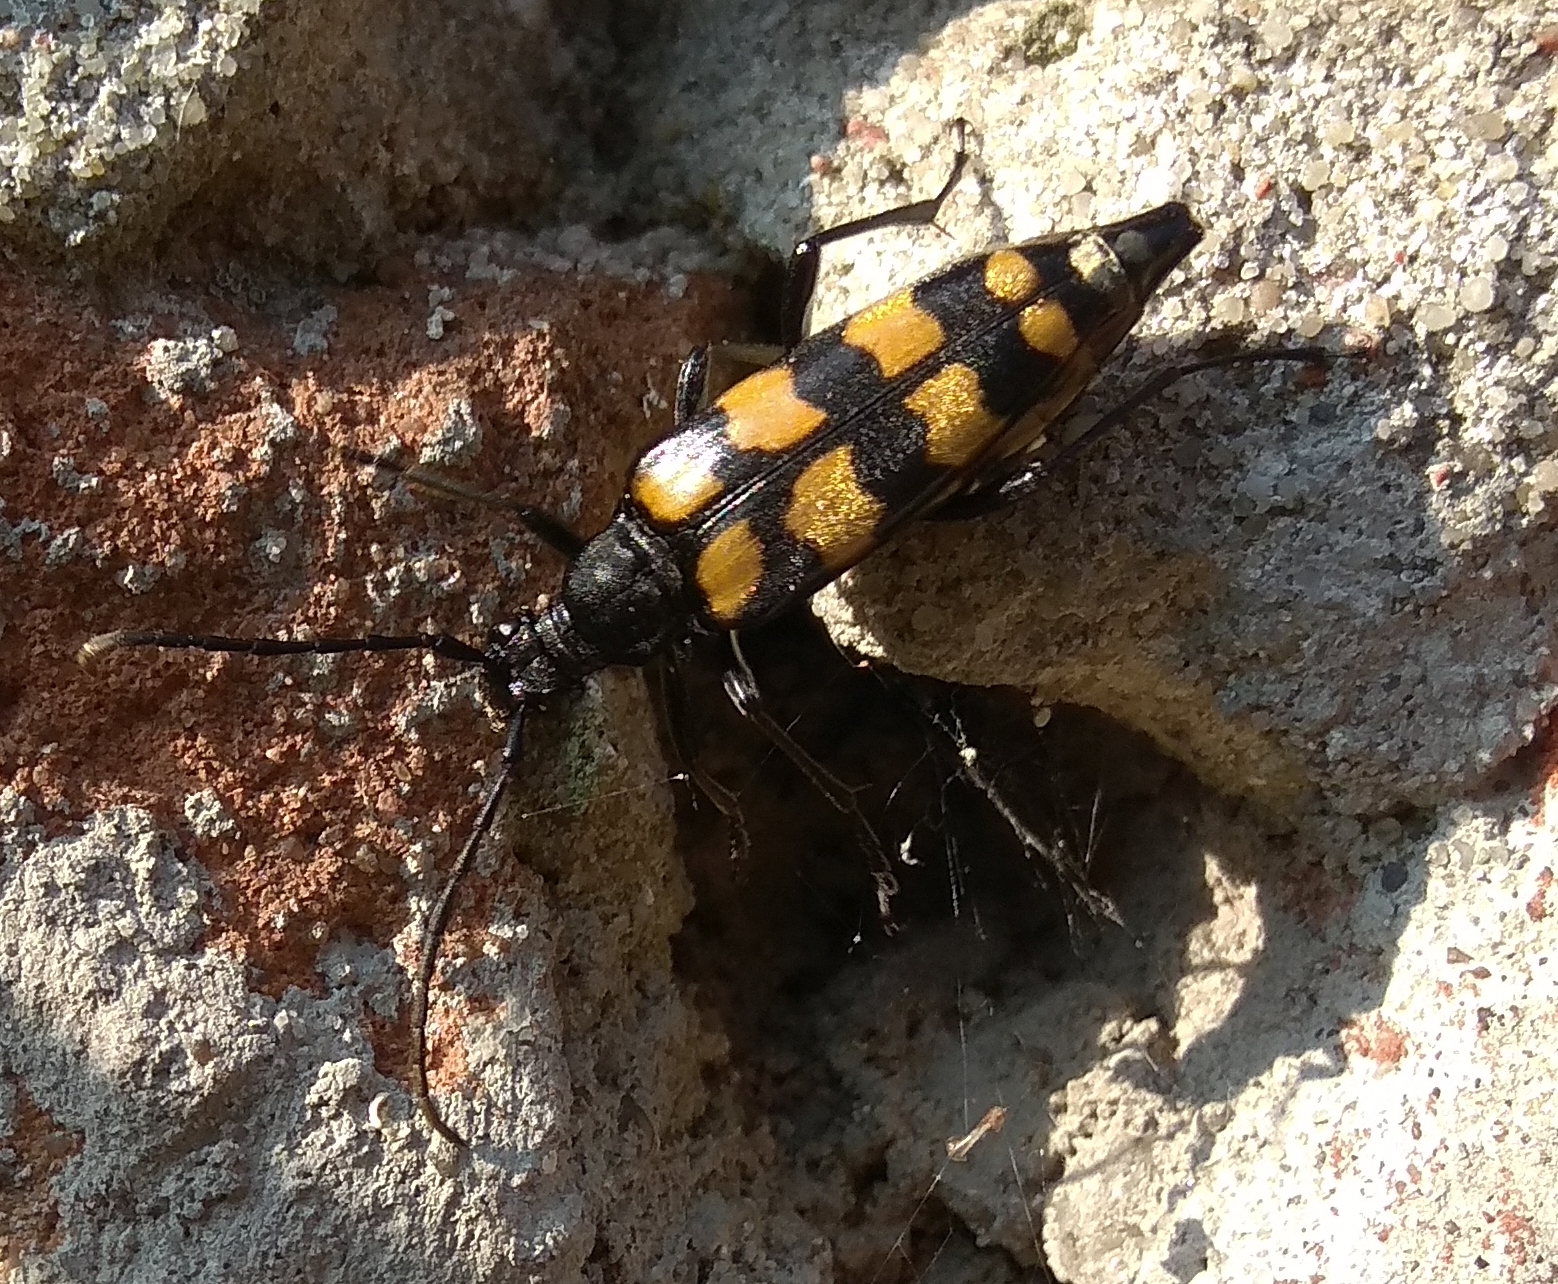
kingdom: Animalia
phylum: Arthropoda
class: Insecta
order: Coleoptera
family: Cerambycidae
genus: Leptura
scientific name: Leptura quadrifasciata
